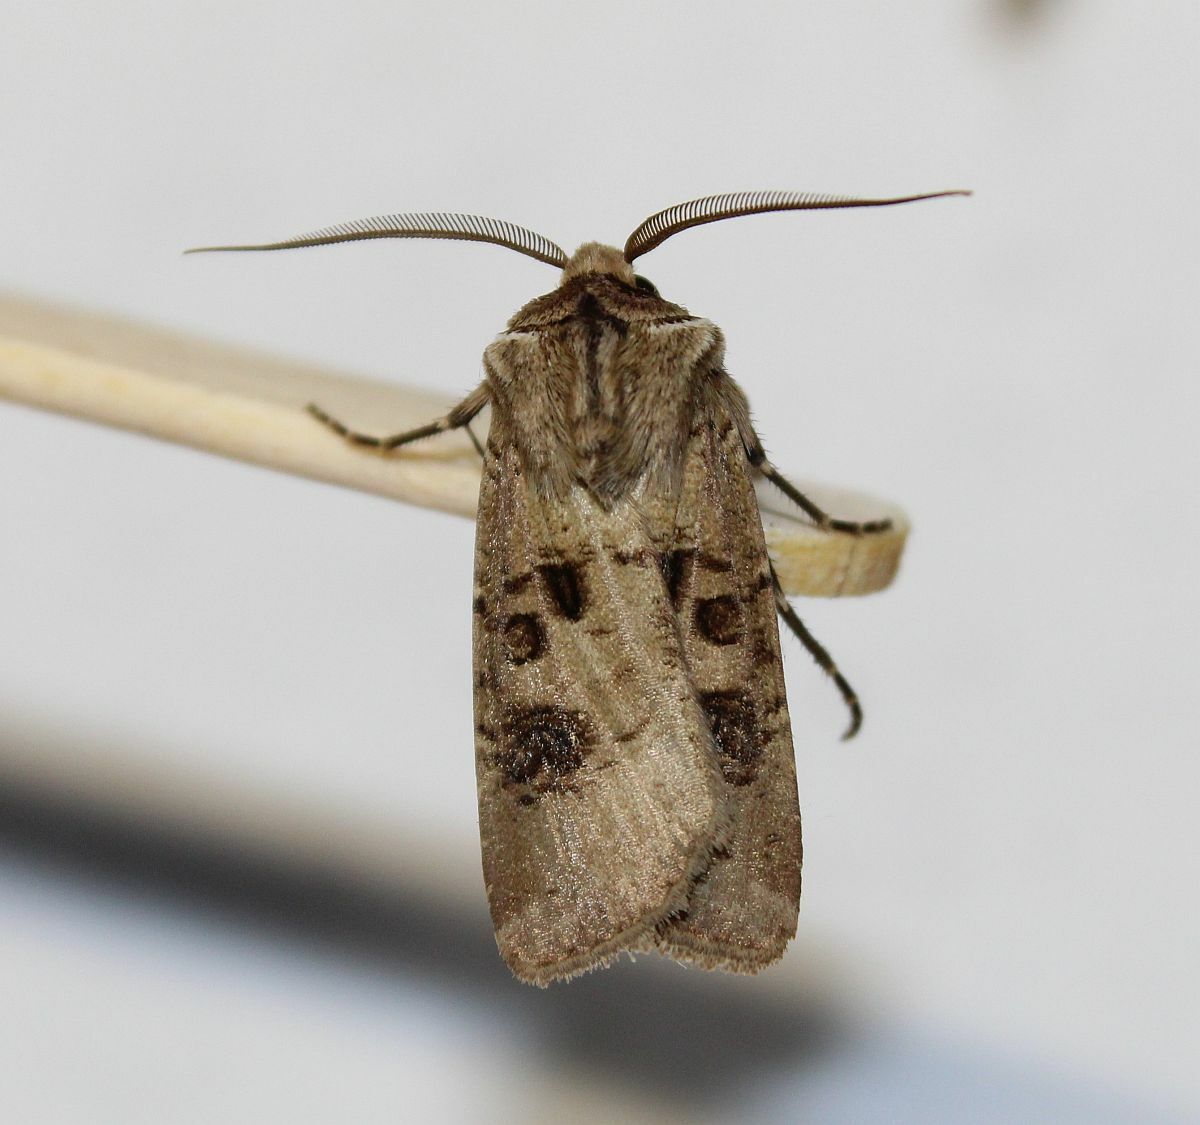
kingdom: Animalia
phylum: Arthropoda
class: Insecta
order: Lepidoptera
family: Noctuidae
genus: Agrotis
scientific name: Agrotis clavis
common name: Heart and club
